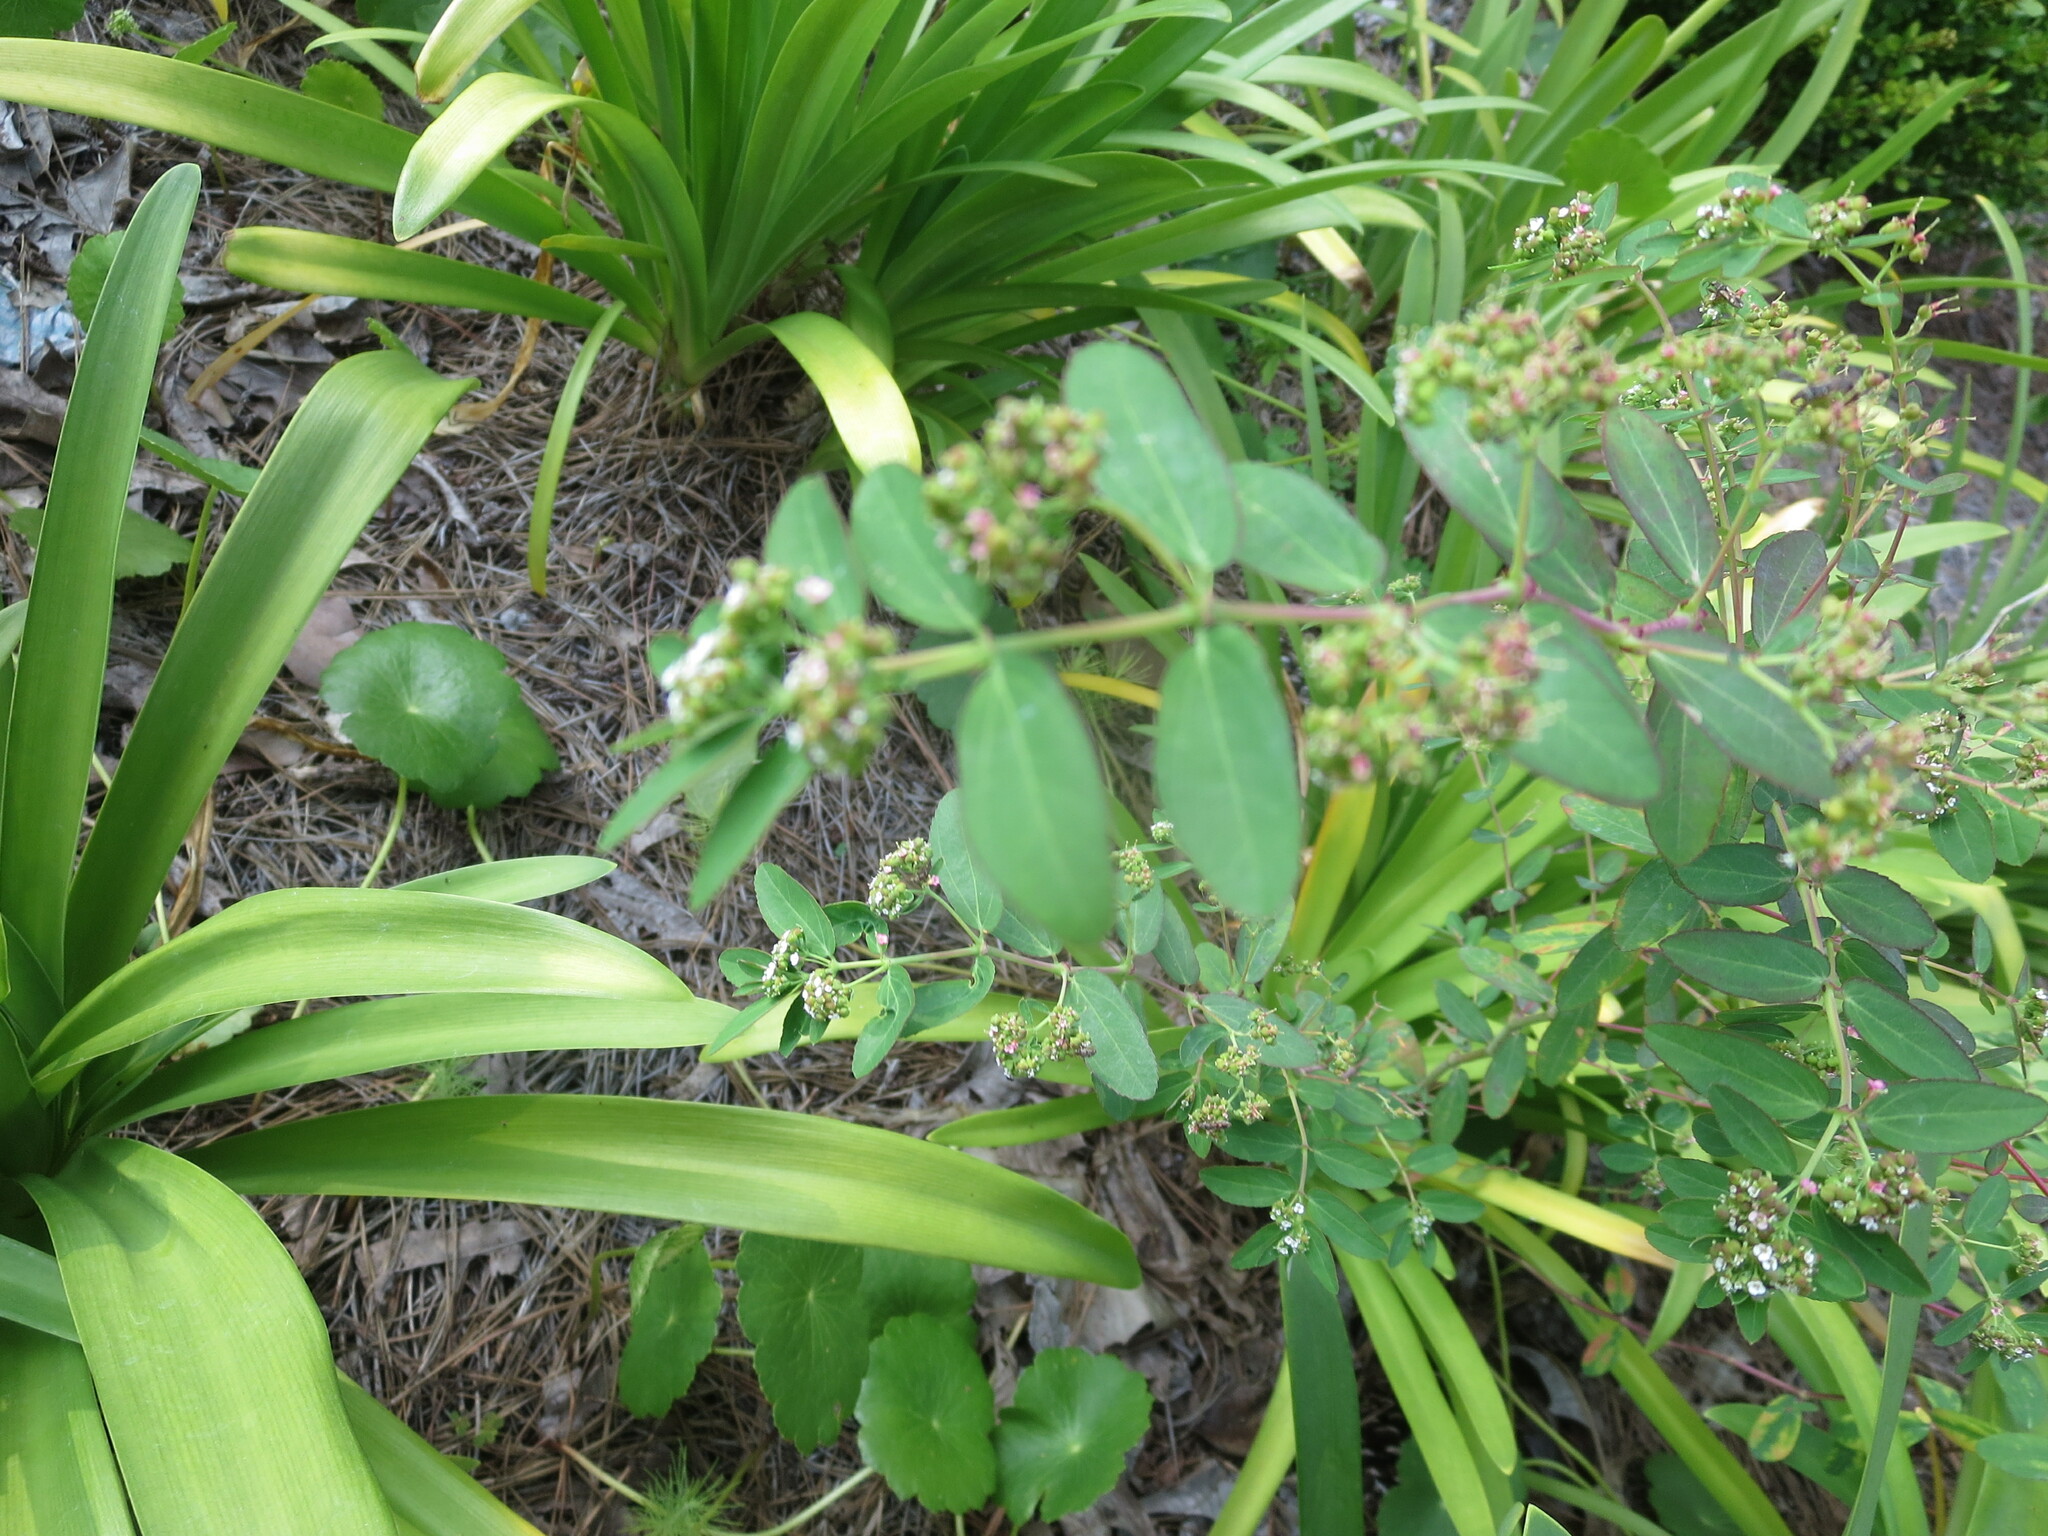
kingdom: Plantae
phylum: Tracheophyta
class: Magnoliopsida
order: Malpighiales
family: Euphorbiaceae
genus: Euphorbia
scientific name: Euphorbia hypericifolia
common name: Graceful sandmat
